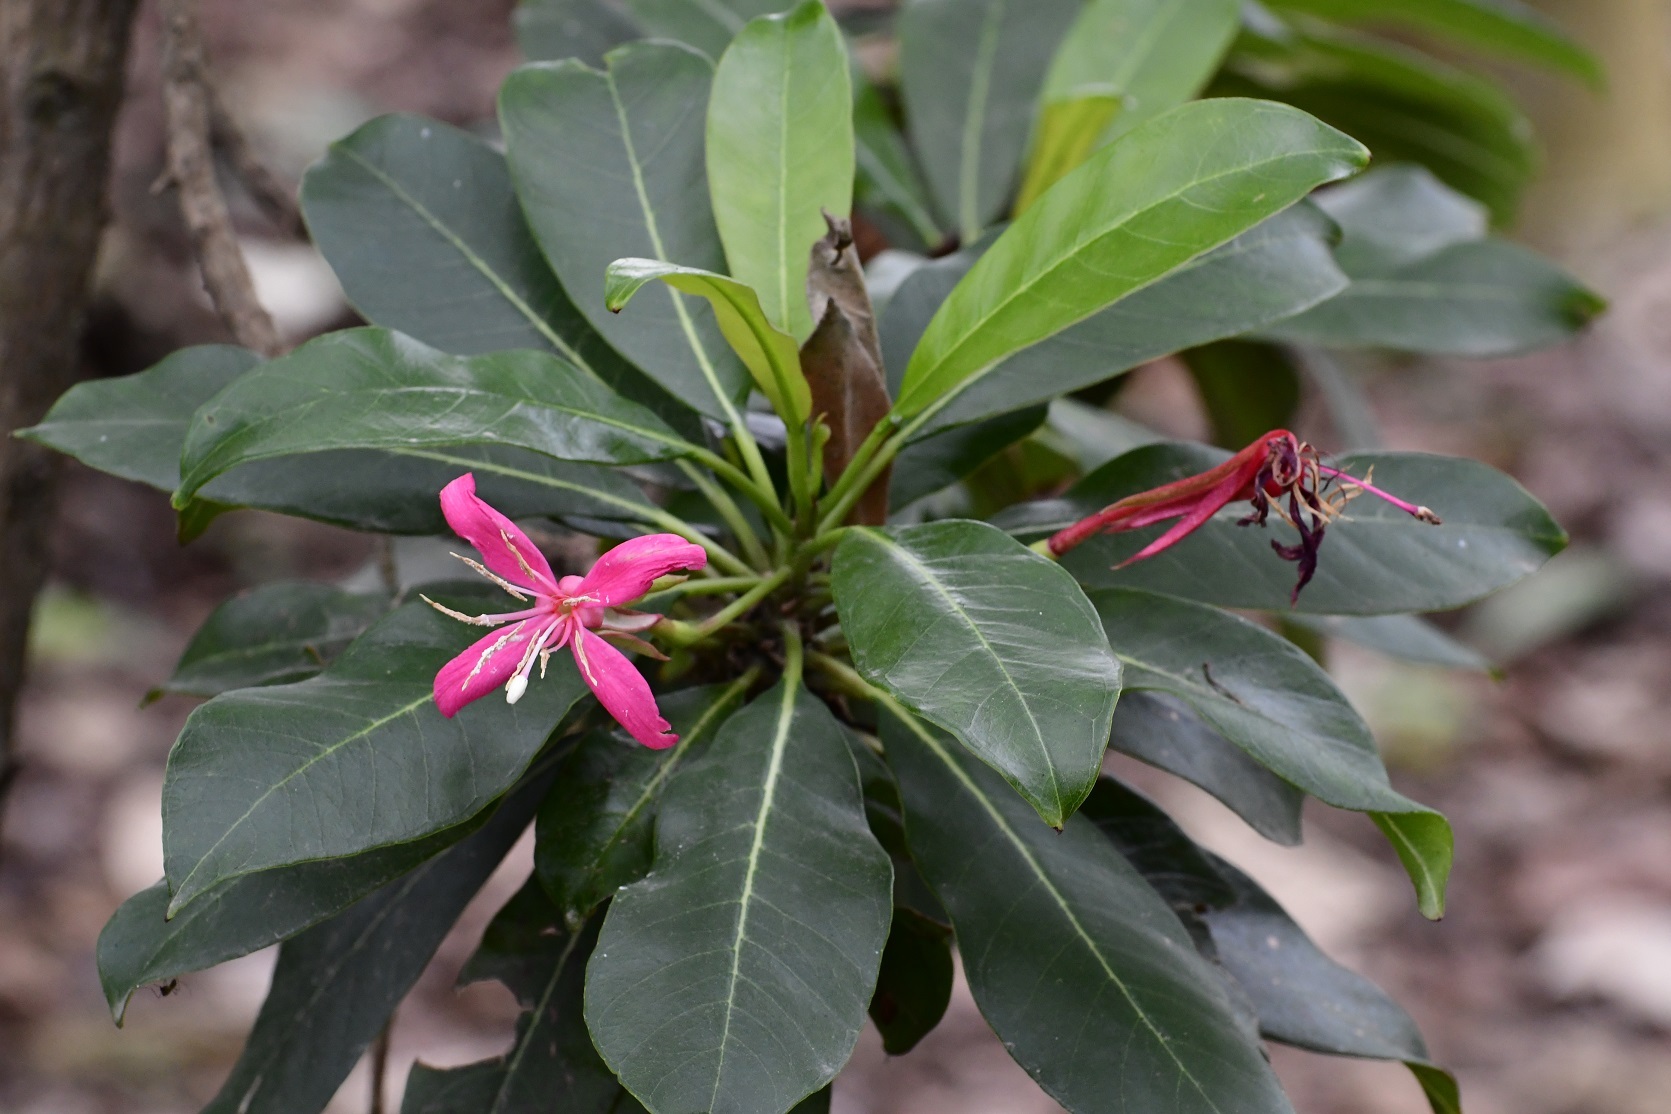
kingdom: Plantae
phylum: Tracheophyta
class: Magnoliopsida
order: Myrtales
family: Onagraceae
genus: Hauya
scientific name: Hauya elegans
